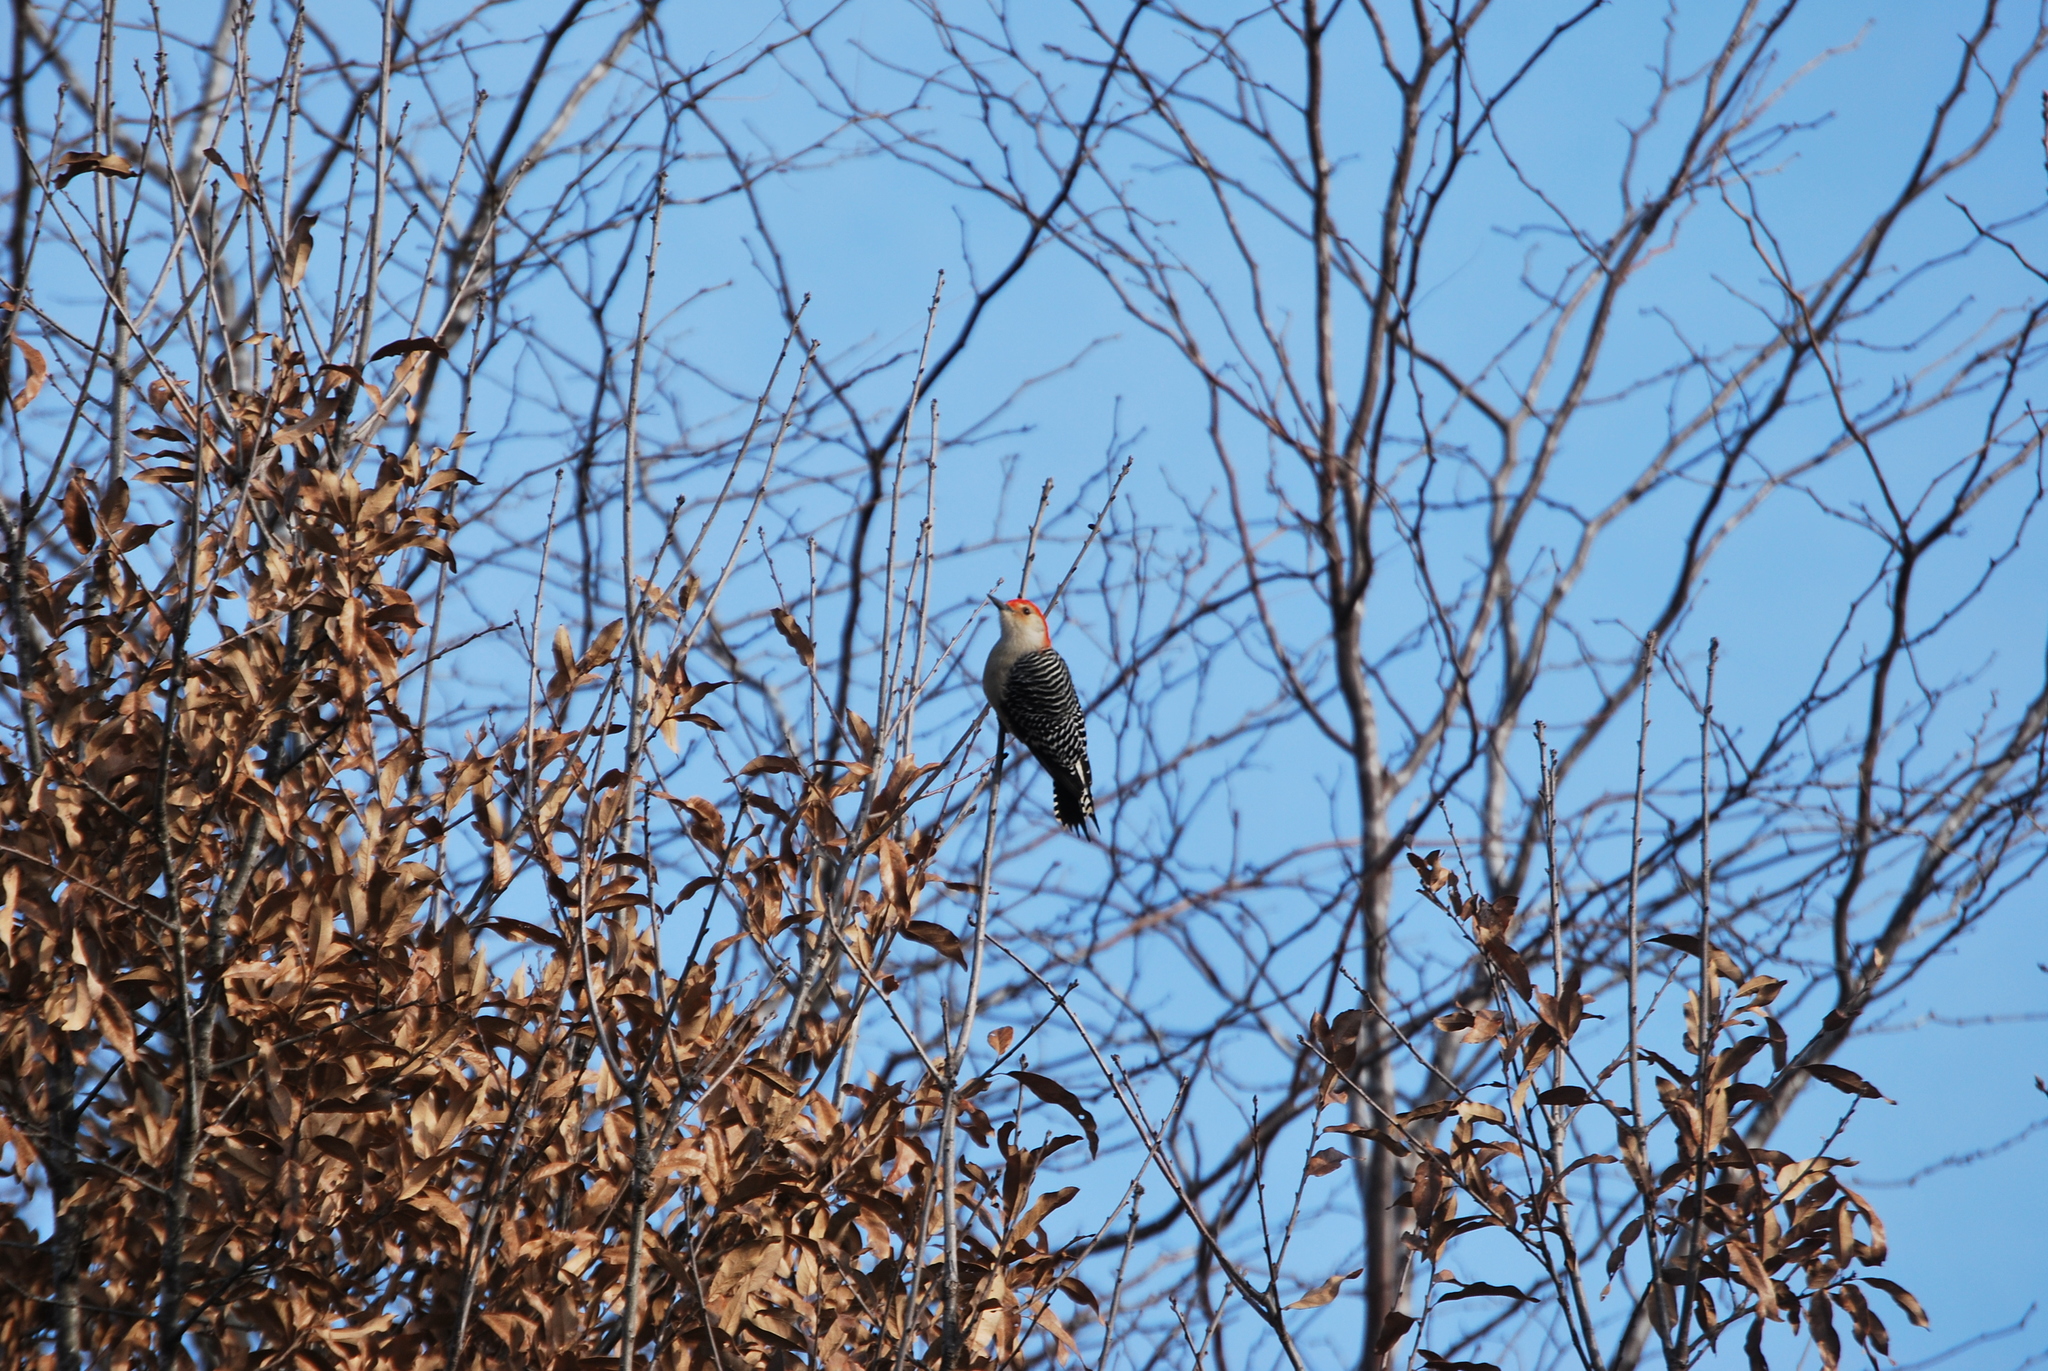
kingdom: Animalia
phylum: Chordata
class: Aves
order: Piciformes
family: Picidae
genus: Melanerpes
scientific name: Melanerpes carolinus
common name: Red-bellied woodpecker
